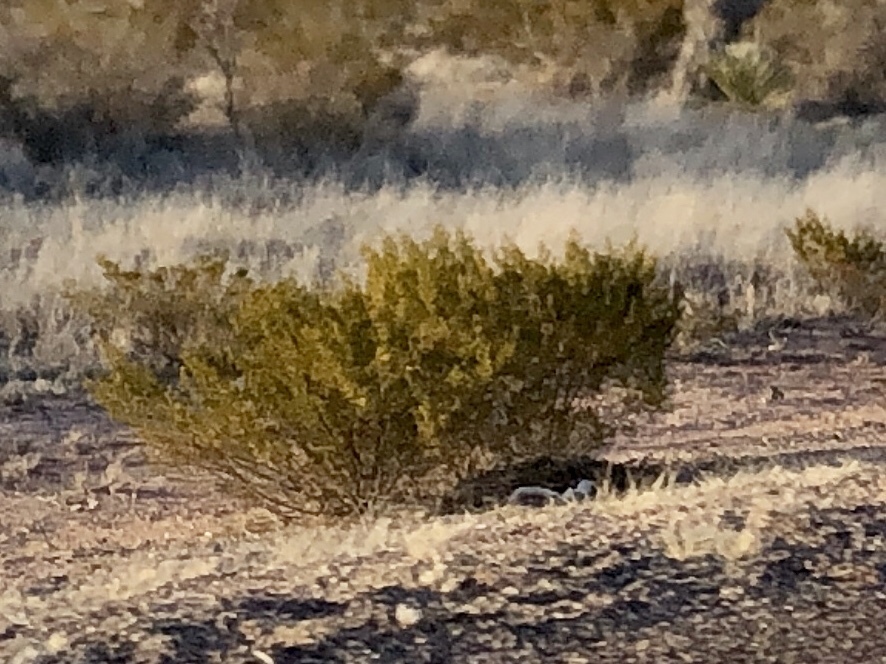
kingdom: Plantae
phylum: Tracheophyta
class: Magnoliopsida
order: Zygophyllales
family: Zygophyllaceae
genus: Larrea
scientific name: Larrea tridentata
